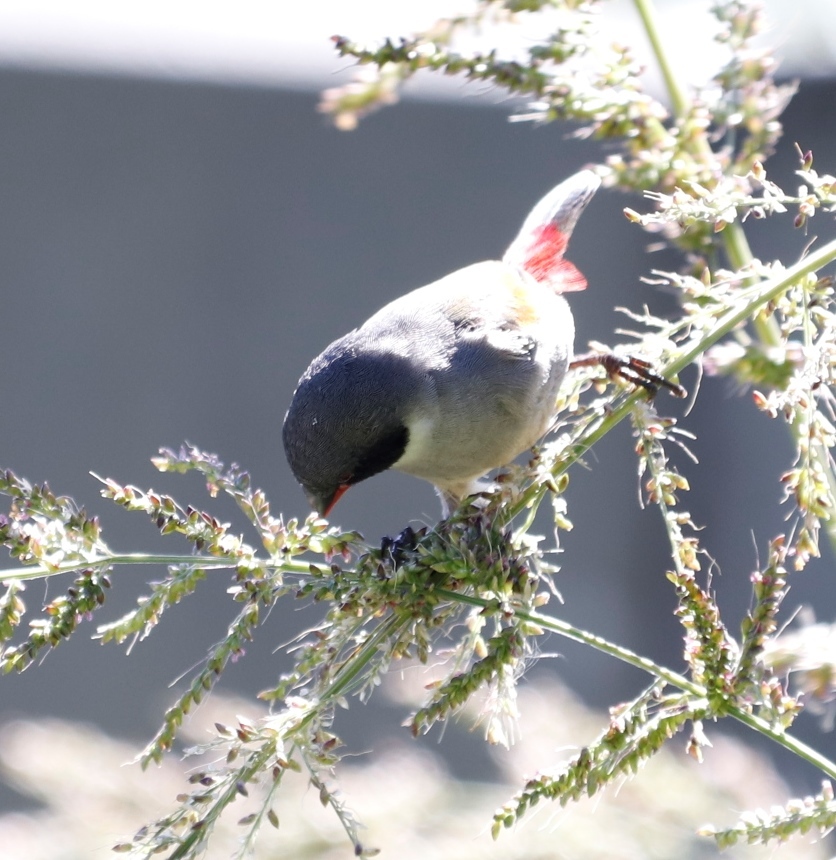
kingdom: Animalia
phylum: Chordata
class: Aves
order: Passeriformes
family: Estrildidae
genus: Coccopygia
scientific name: Coccopygia melanotis
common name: Swee waxbill
